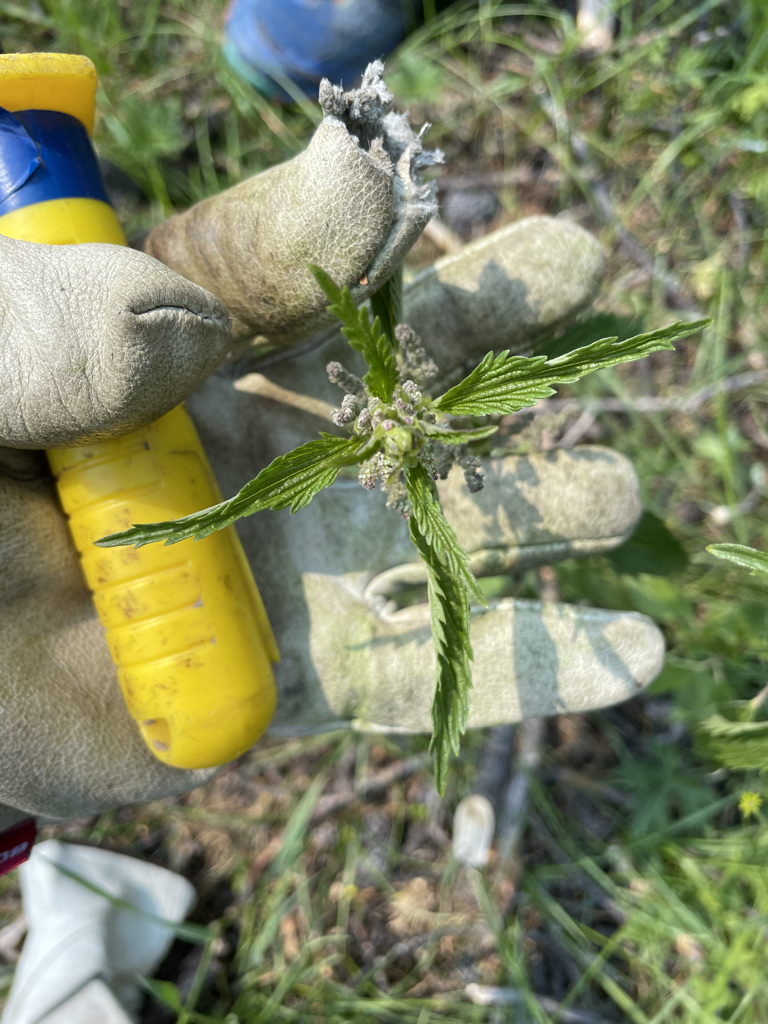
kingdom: Plantae
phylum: Tracheophyta
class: Magnoliopsida
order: Rosales
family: Urticaceae
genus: Urtica
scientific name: Urtica gracilis
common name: Slender stinging nettle
